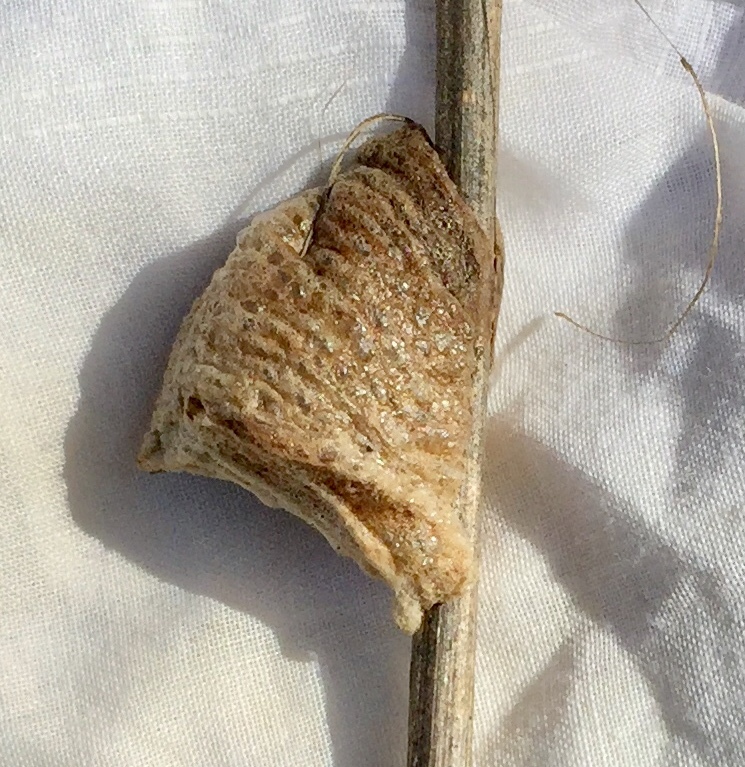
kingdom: Animalia
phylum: Arthropoda
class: Insecta
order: Mantodea
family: Mantidae
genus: Tenodera
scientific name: Tenodera sinensis
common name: Chinese mantis
